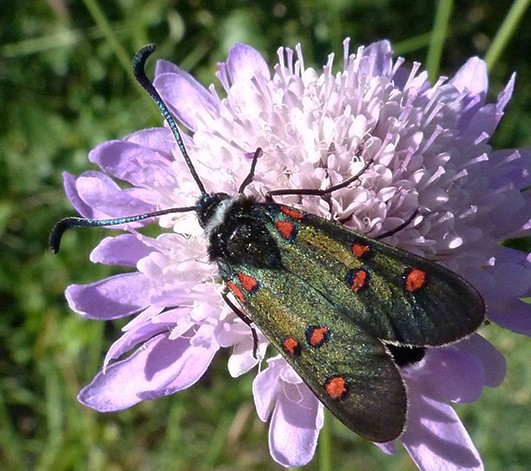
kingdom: Animalia
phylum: Arthropoda
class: Insecta
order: Lepidoptera
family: Zygaenidae
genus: Zygaena
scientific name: Zygaena lavandulae
